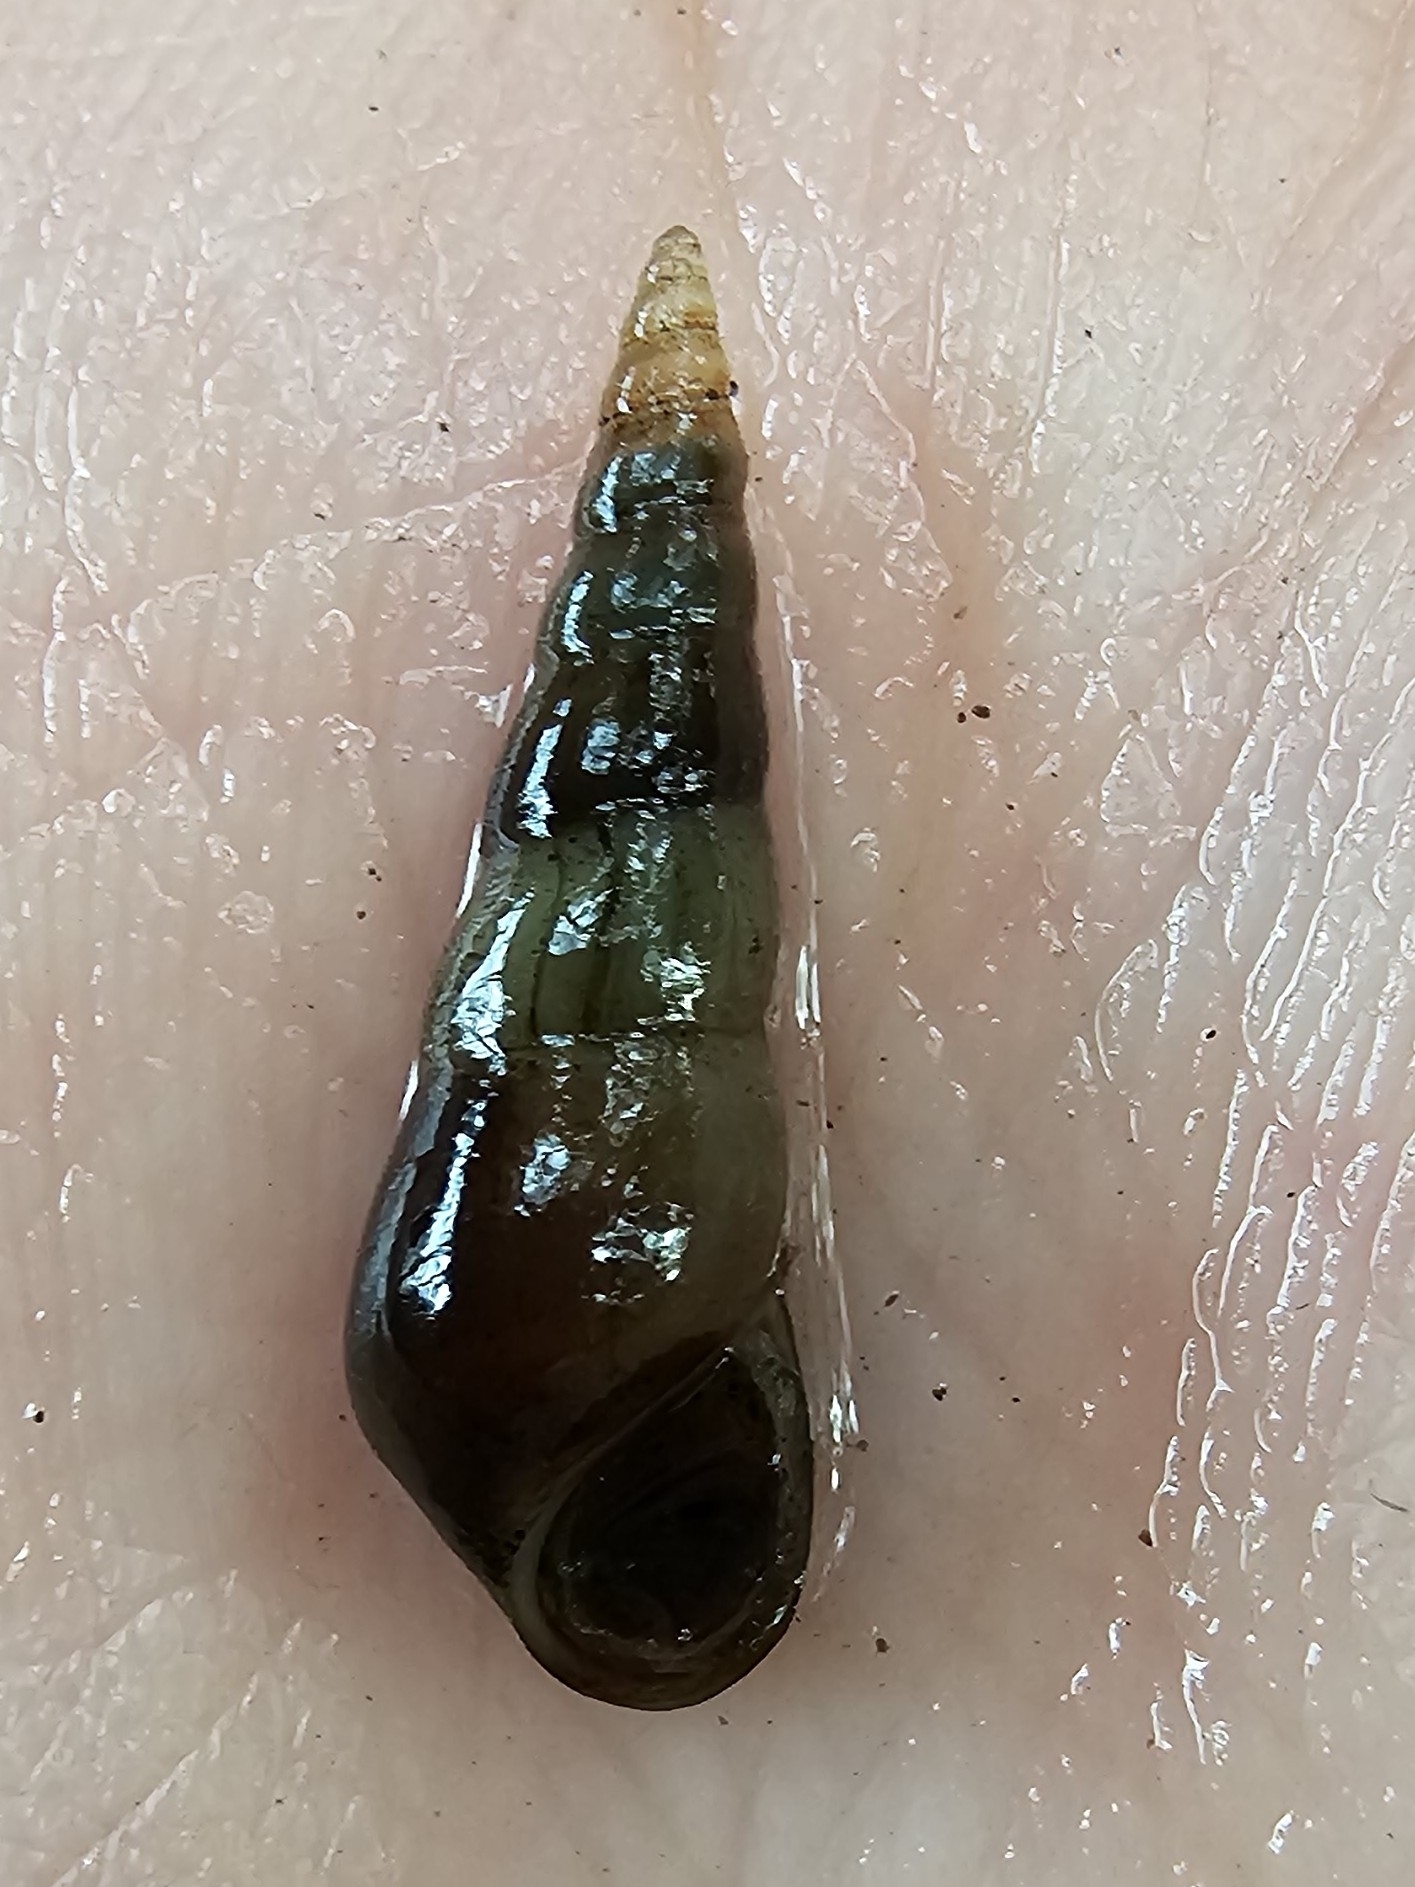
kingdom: Animalia
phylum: Mollusca
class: Gastropoda
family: Thiaridae
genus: Melanoides
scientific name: Melanoides tuberculata
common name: Red-rim melania
